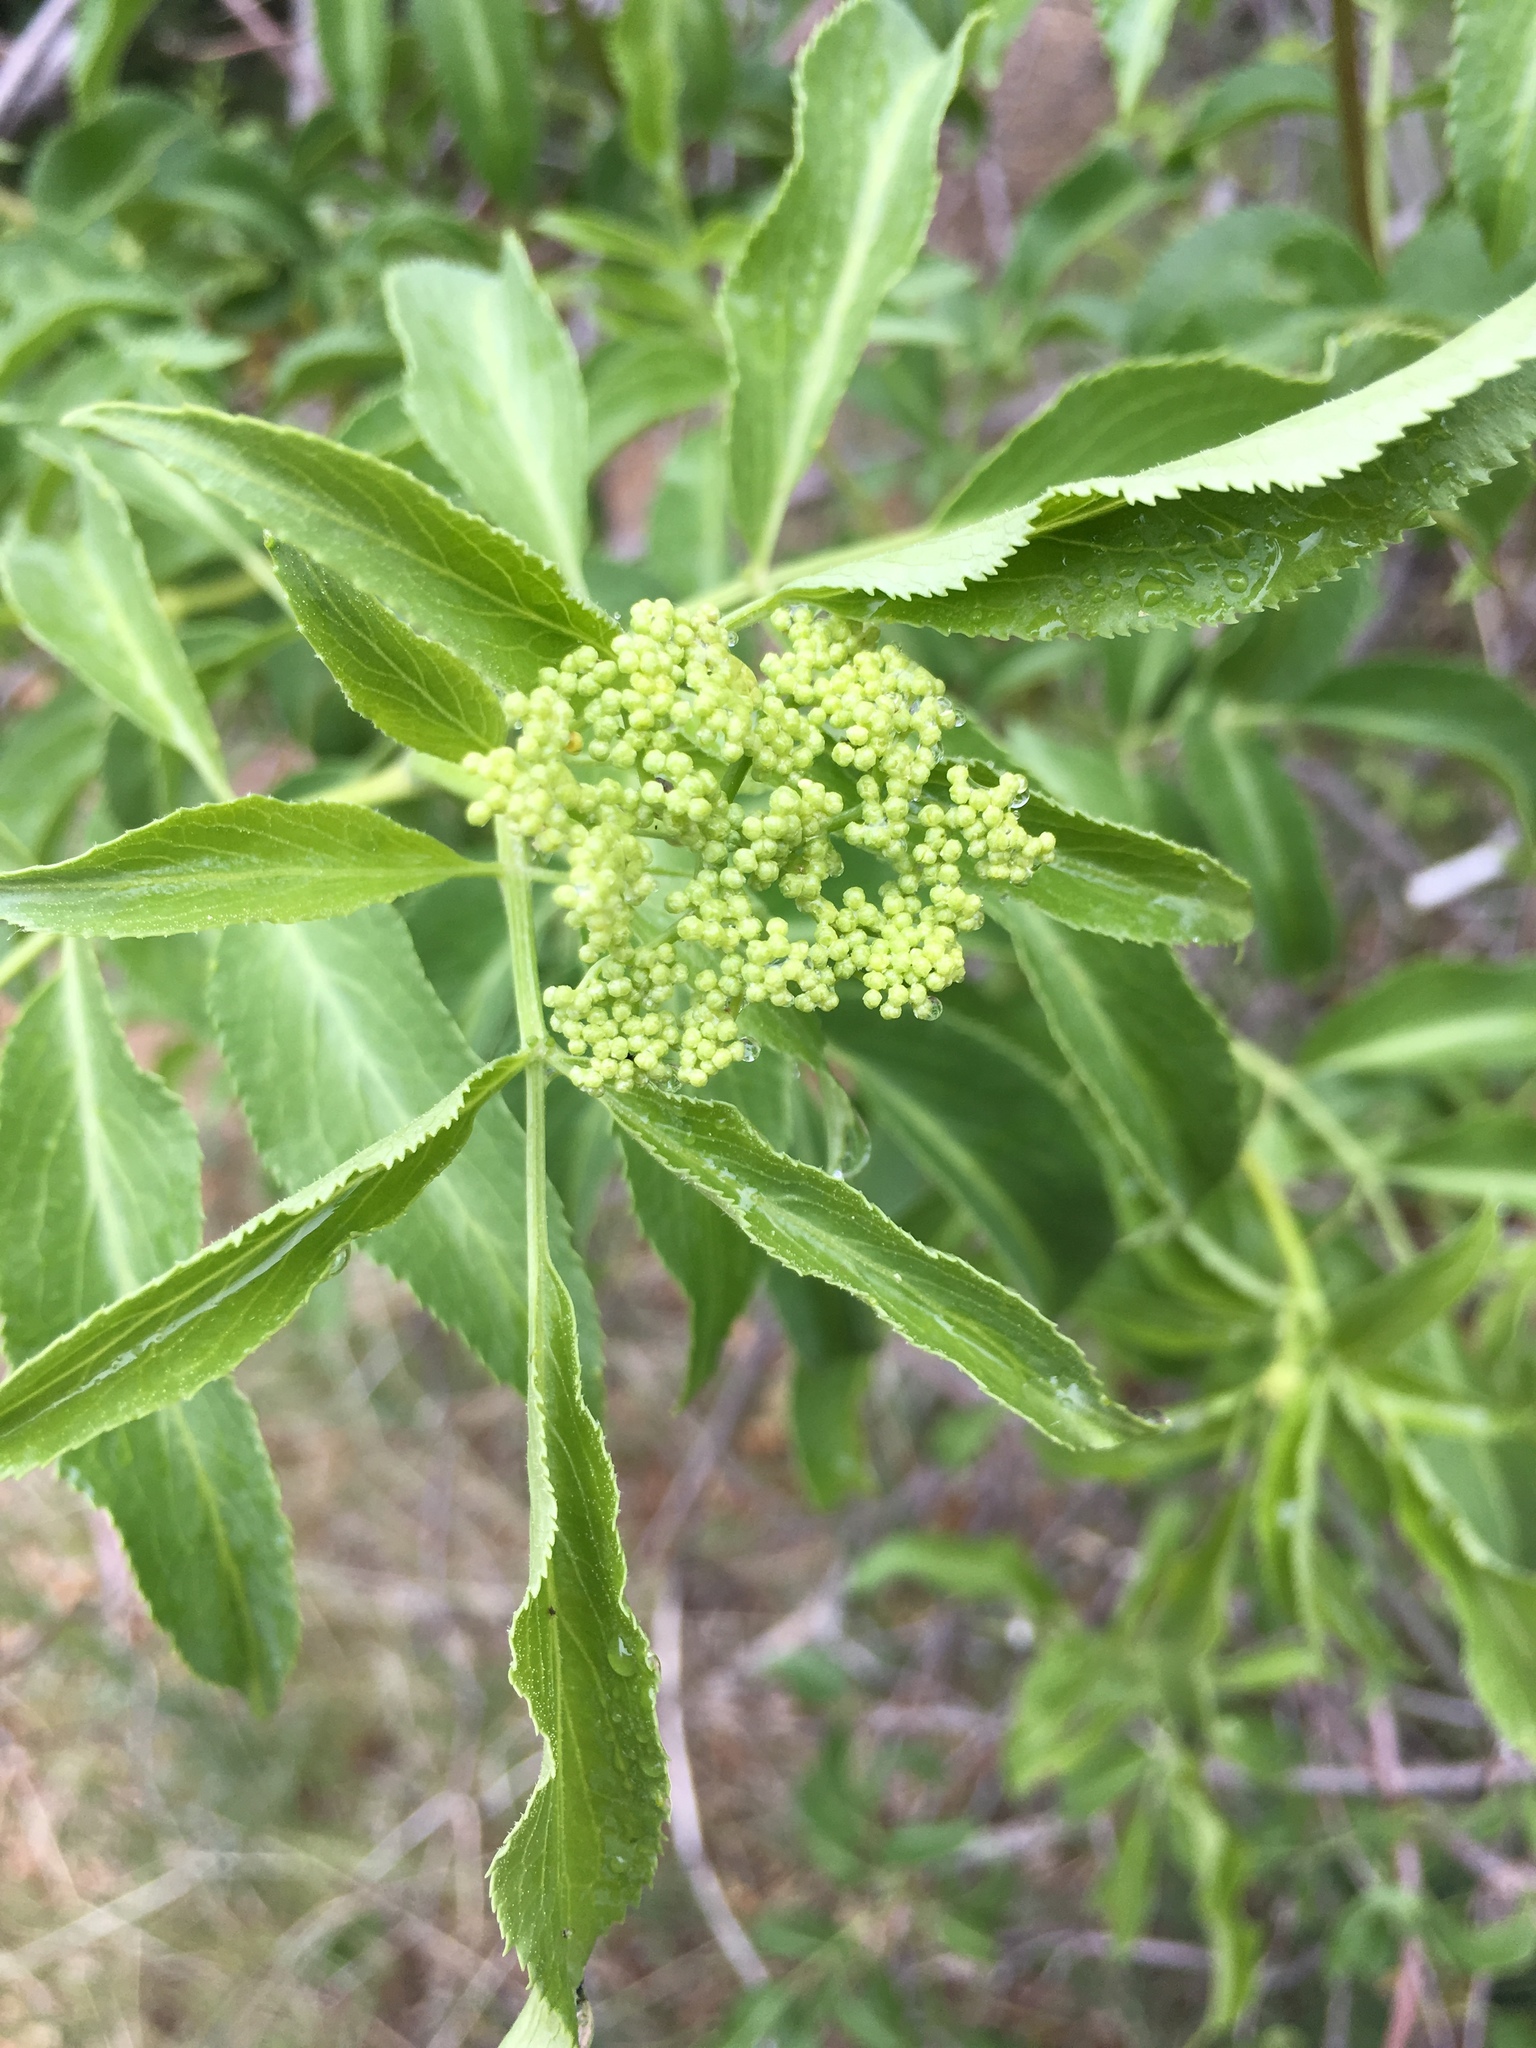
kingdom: Plantae
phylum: Tracheophyta
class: Magnoliopsida
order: Dipsacales
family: Viburnaceae
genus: Sambucus
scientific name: Sambucus cerulea
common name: Blue elder
